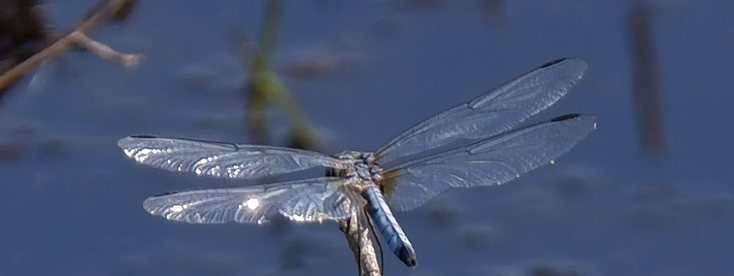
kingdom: Animalia
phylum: Arthropoda
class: Insecta
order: Odonata
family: Libellulidae
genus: Pachydiplax
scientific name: Pachydiplax longipennis
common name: Blue dasher
